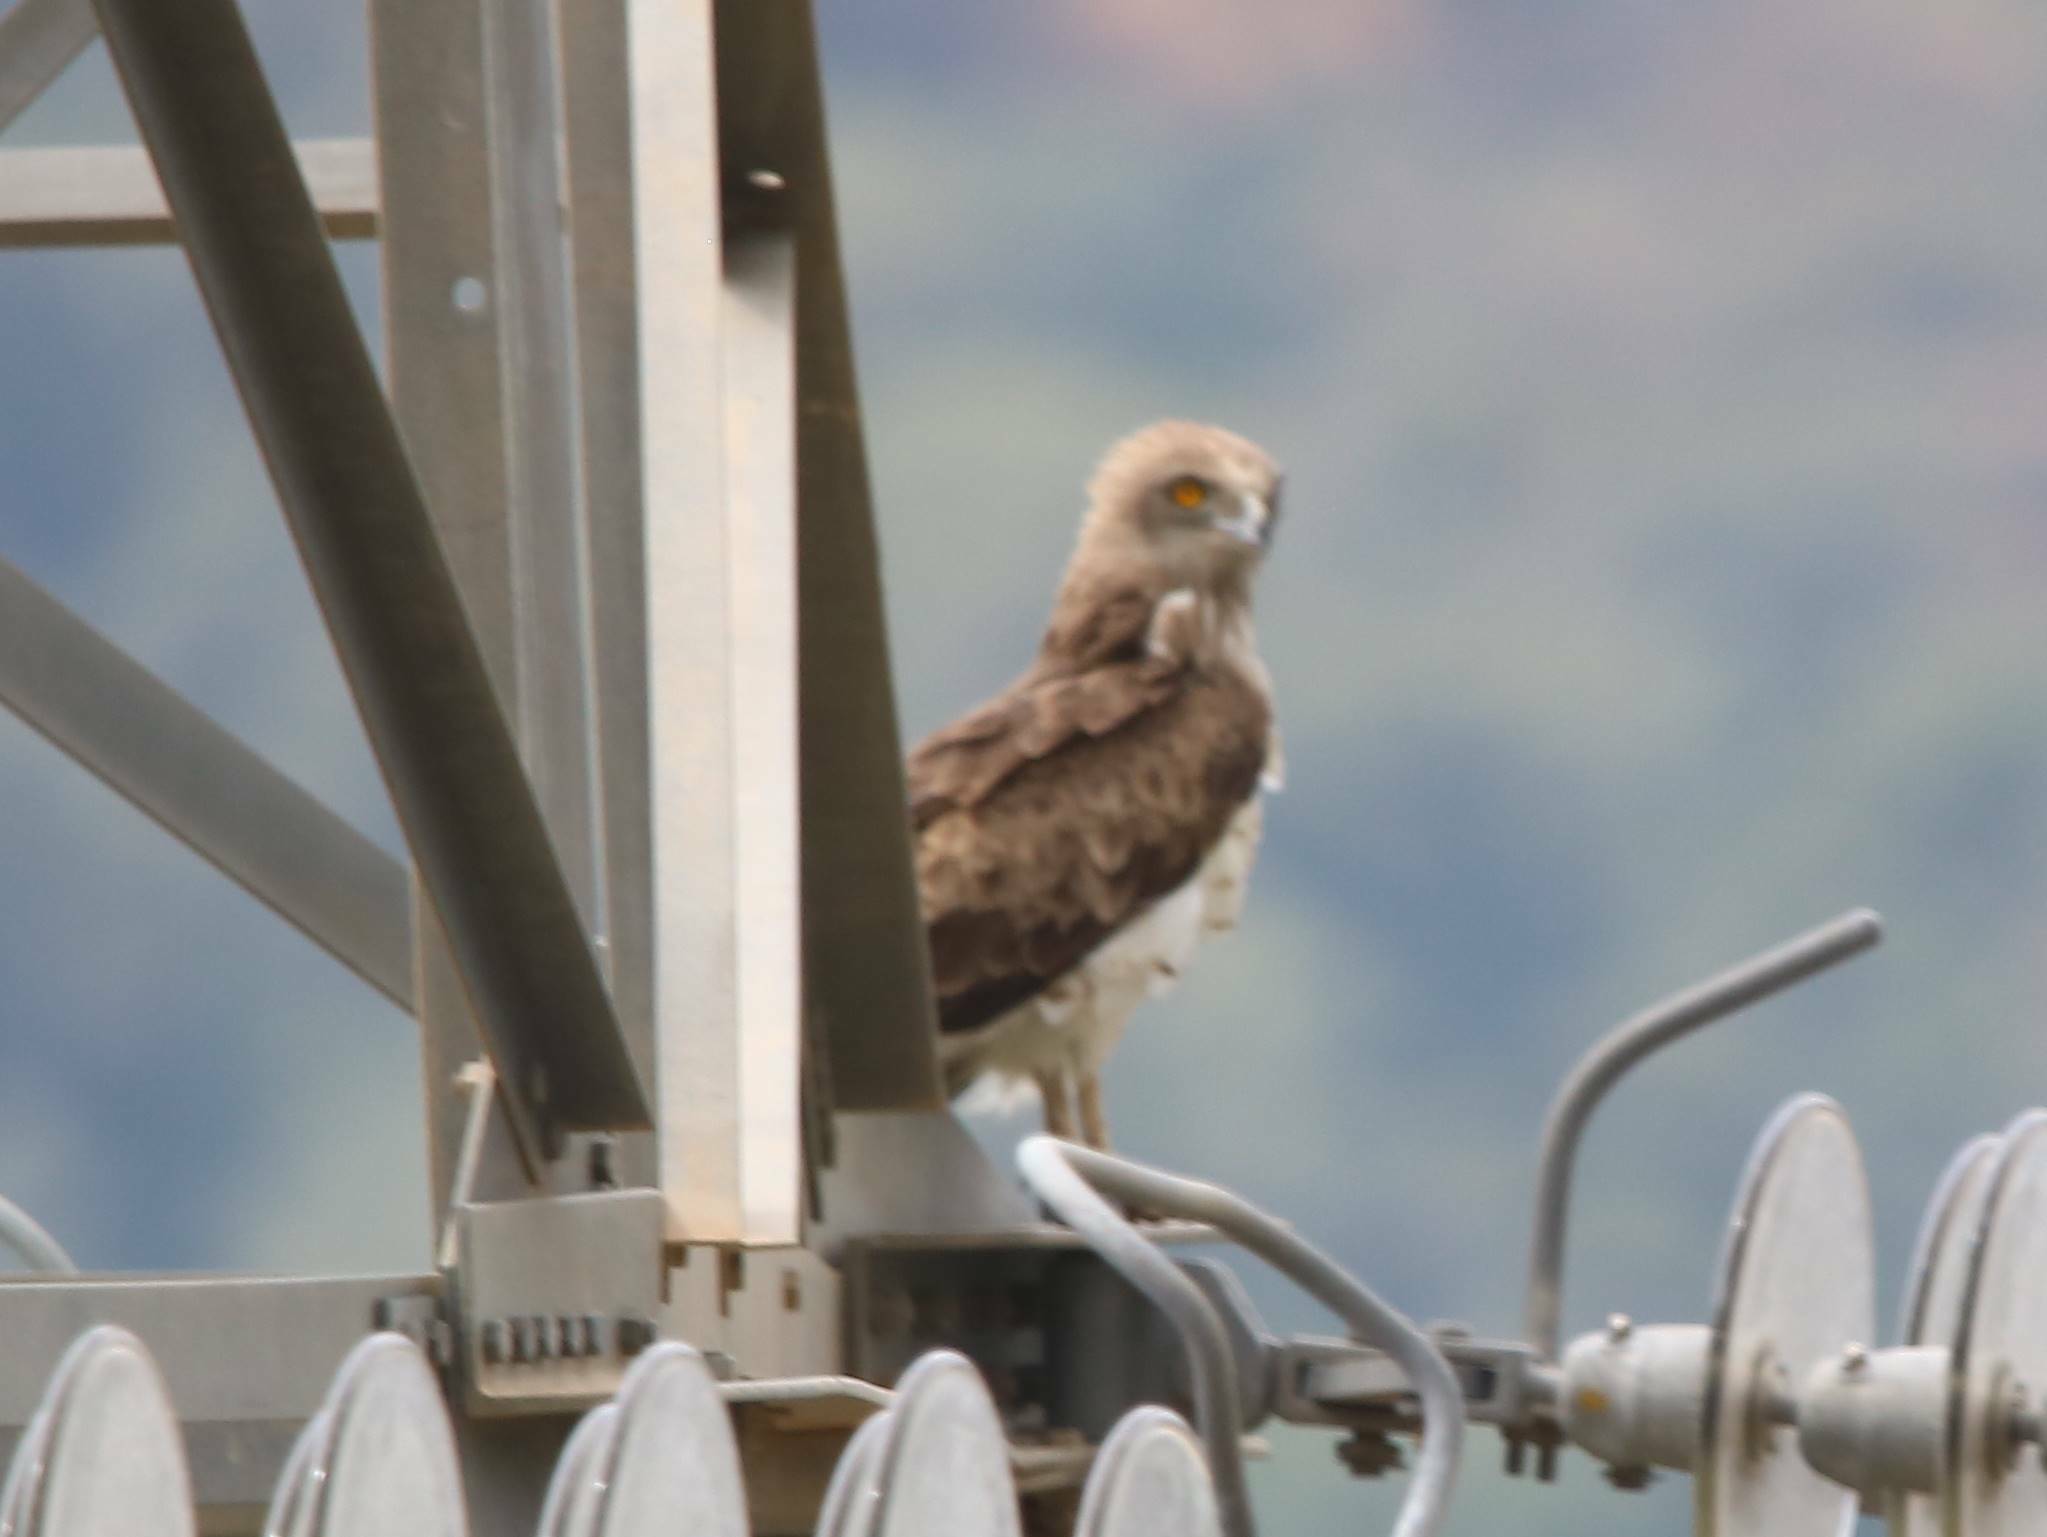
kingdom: Animalia
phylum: Chordata
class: Aves
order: Accipitriformes
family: Accipitridae
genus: Circaetus
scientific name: Circaetus gallicus
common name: Short-toed snake eagle
